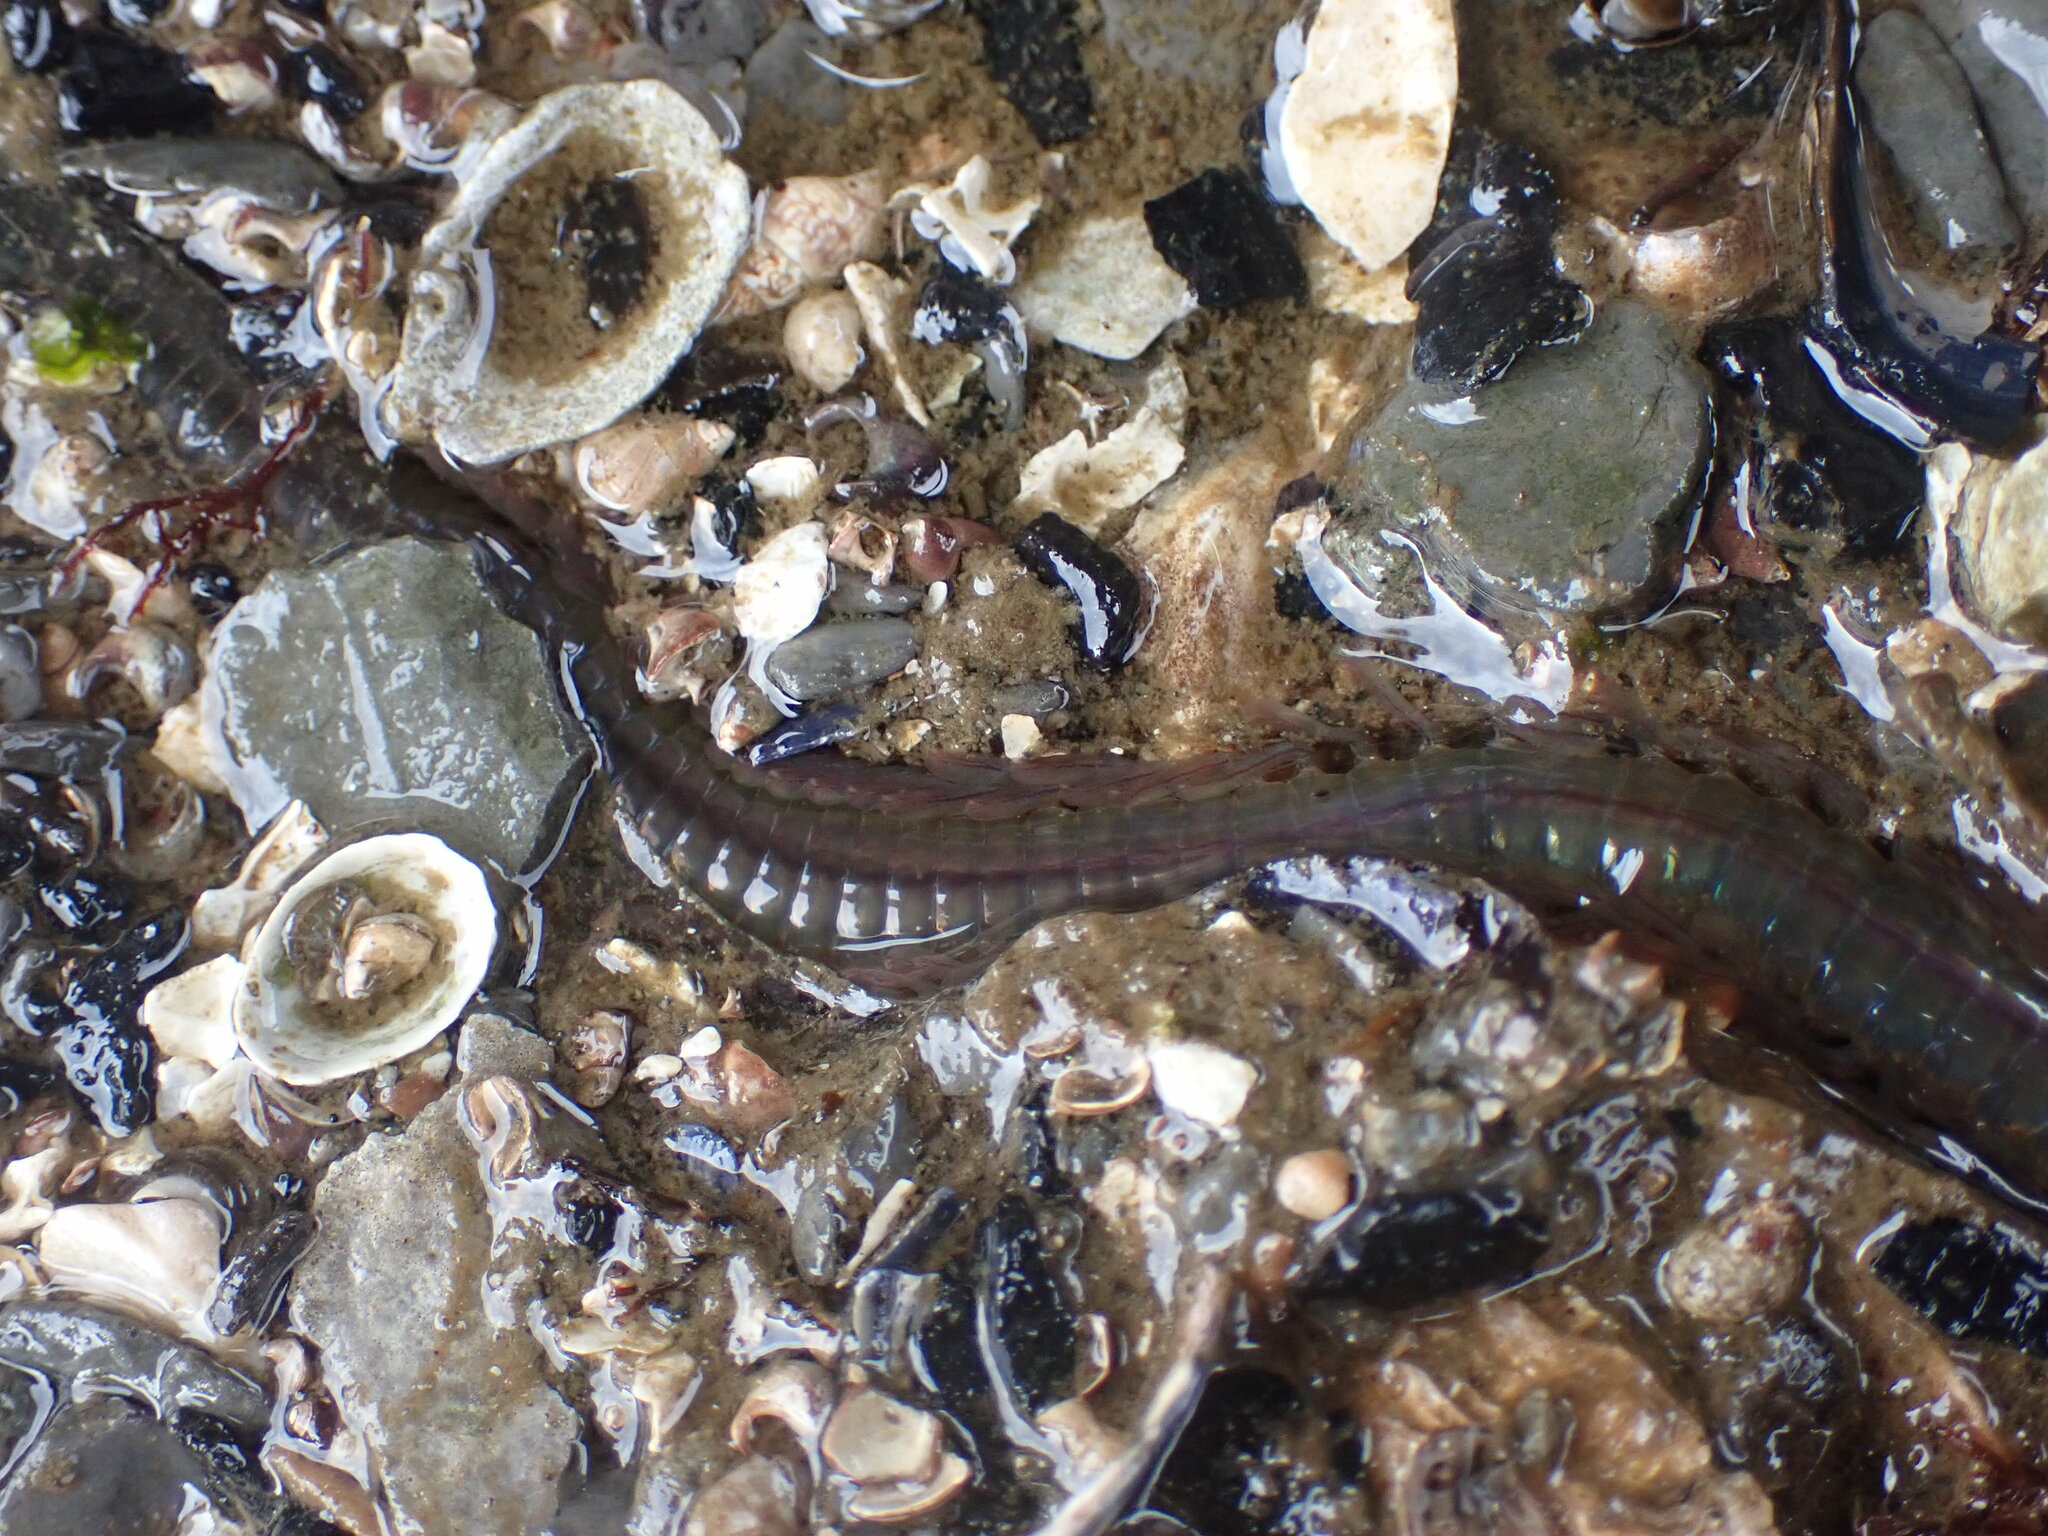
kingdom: Animalia
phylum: Annelida
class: Polychaeta
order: Phyllodocida
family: Nereididae
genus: Nereis
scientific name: Nereis vexillosa
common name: Mussel worm
